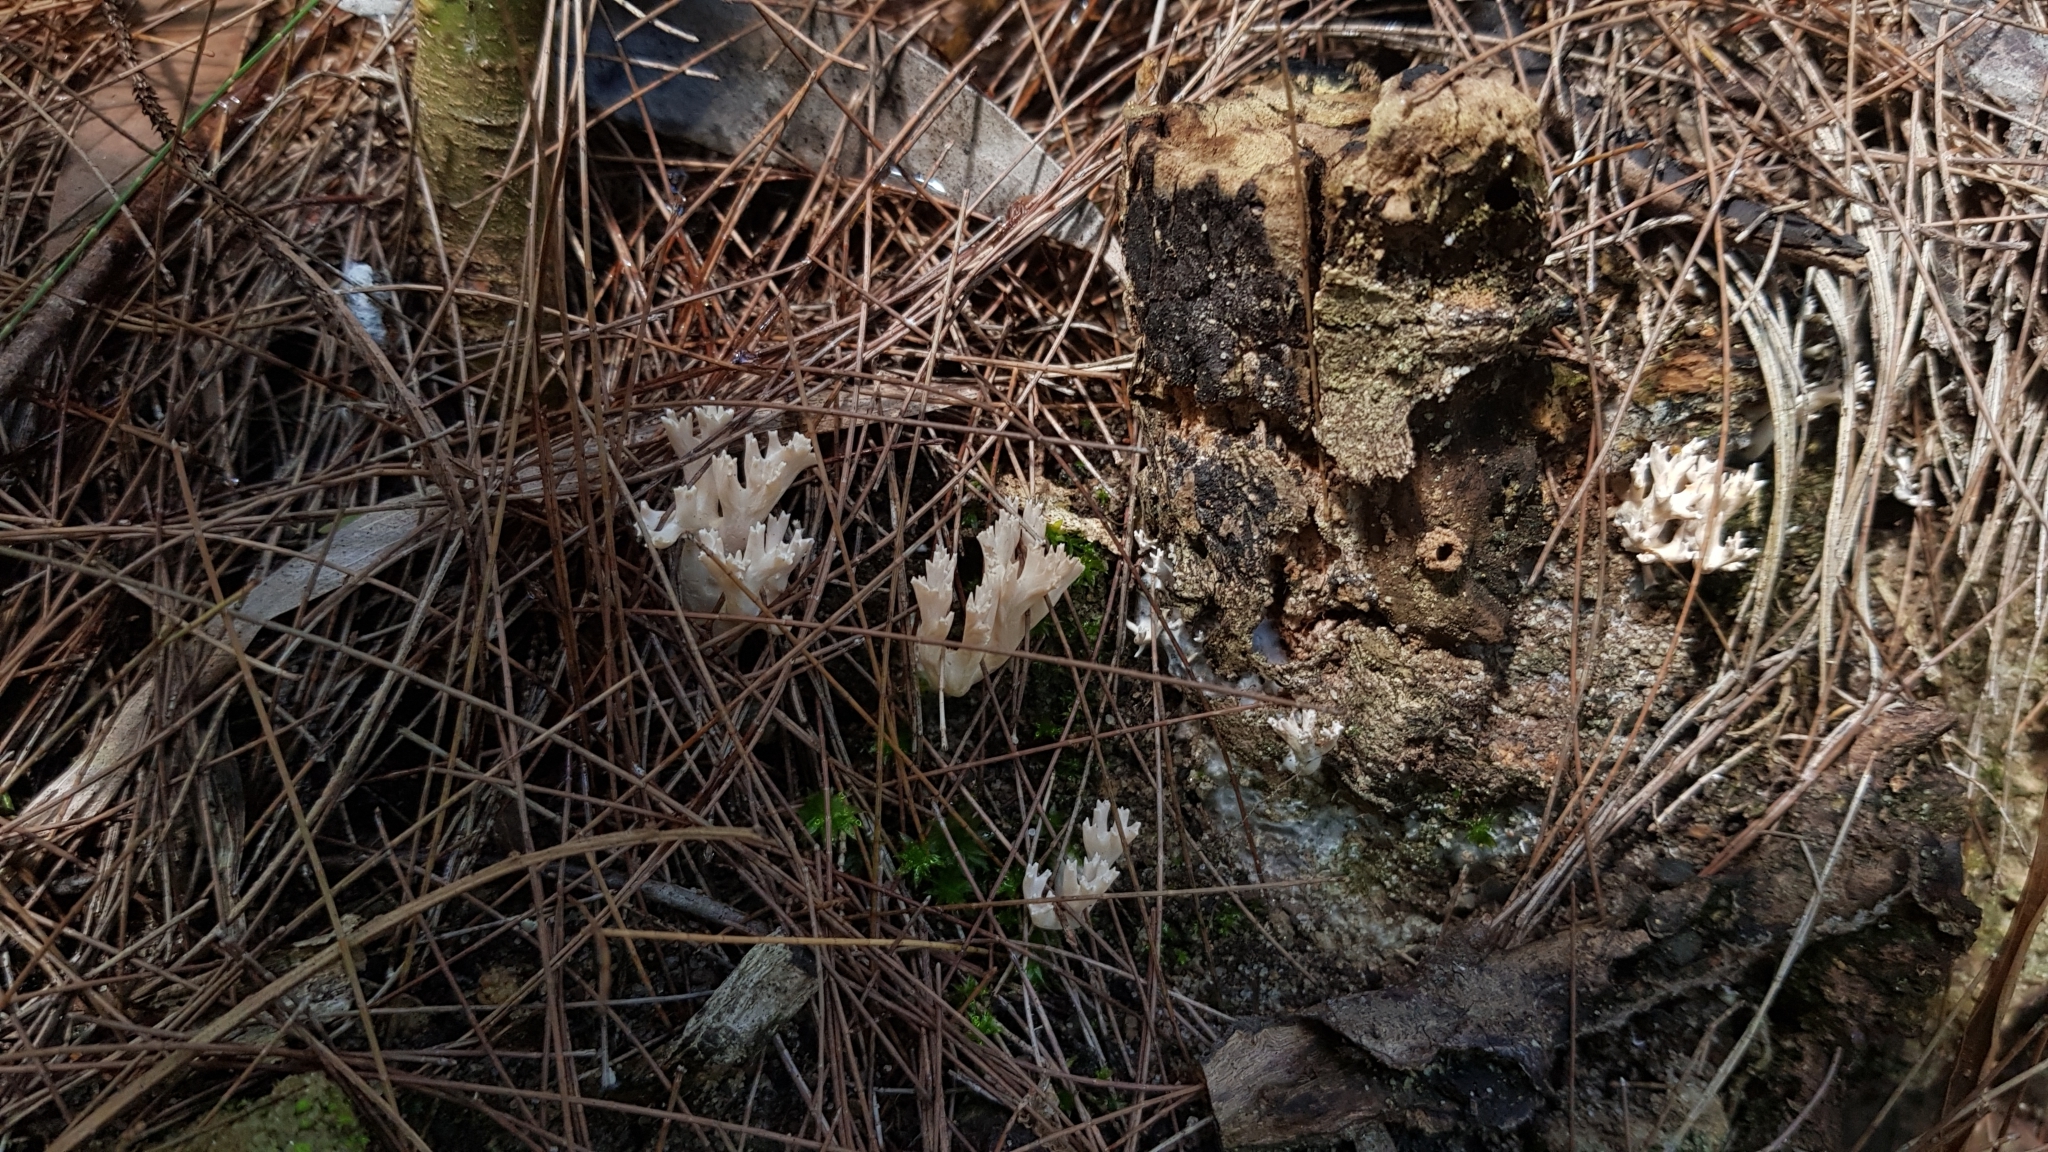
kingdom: Fungi
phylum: Basidiomycota
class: Agaricomycetes
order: Gomphales
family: Gomphaceae
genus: Ramaria
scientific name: Ramaria filicicola
